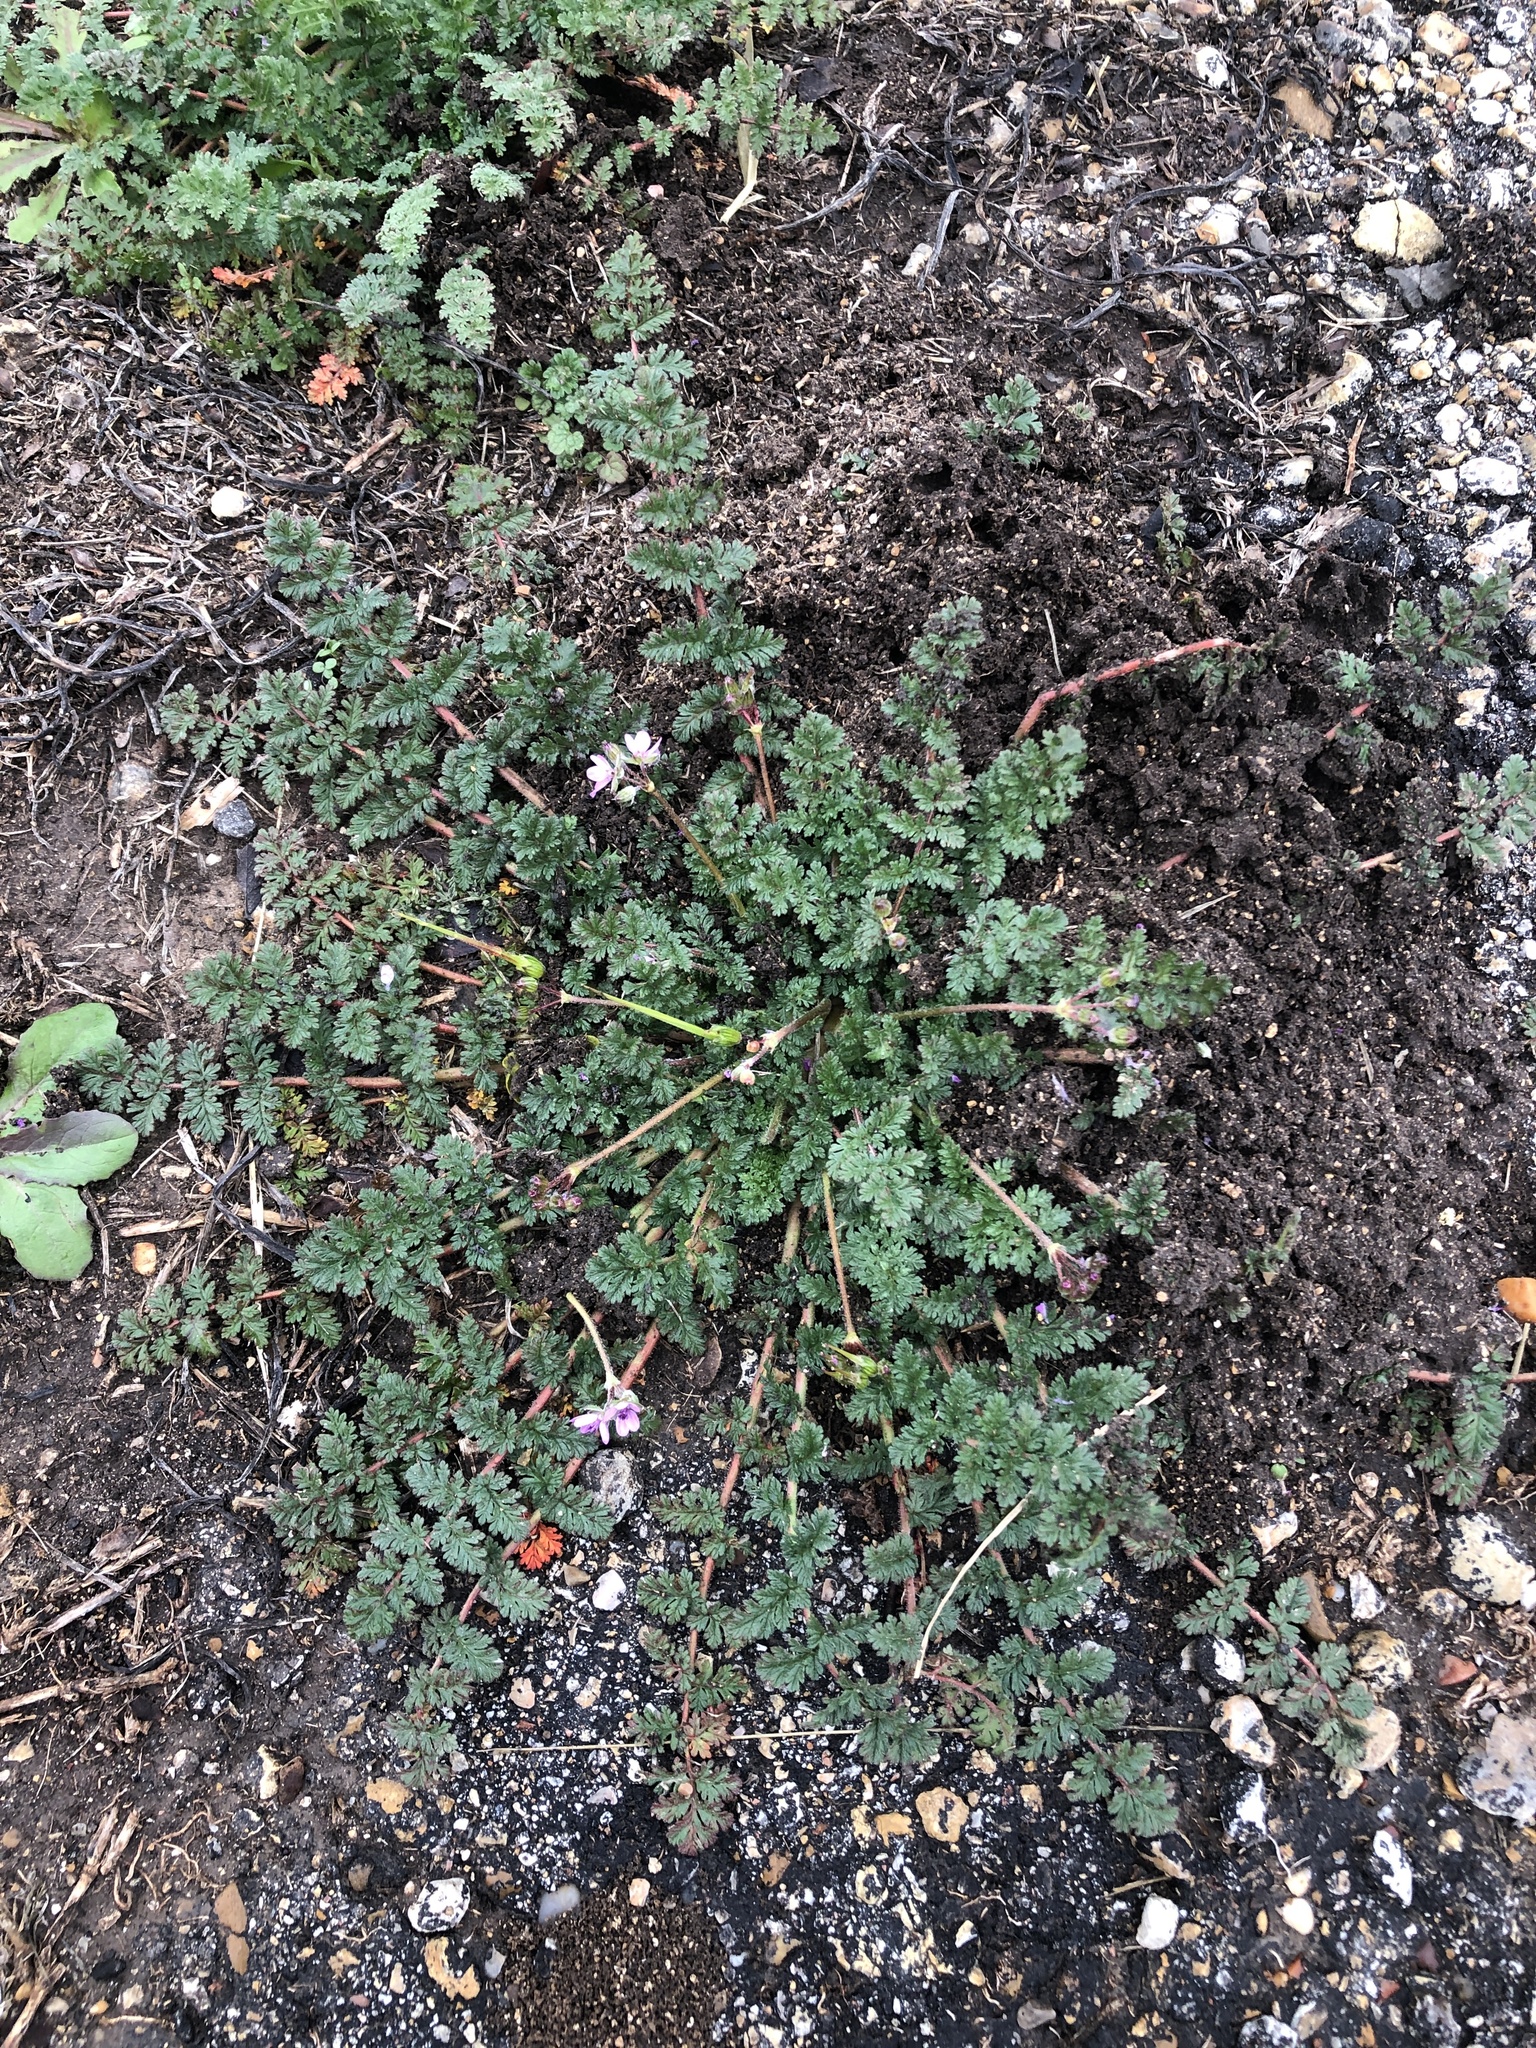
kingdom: Plantae
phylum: Tracheophyta
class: Magnoliopsida
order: Geraniales
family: Geraniaceae
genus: Erodium
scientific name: Erodium cicutarium
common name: Common stork's-bill
